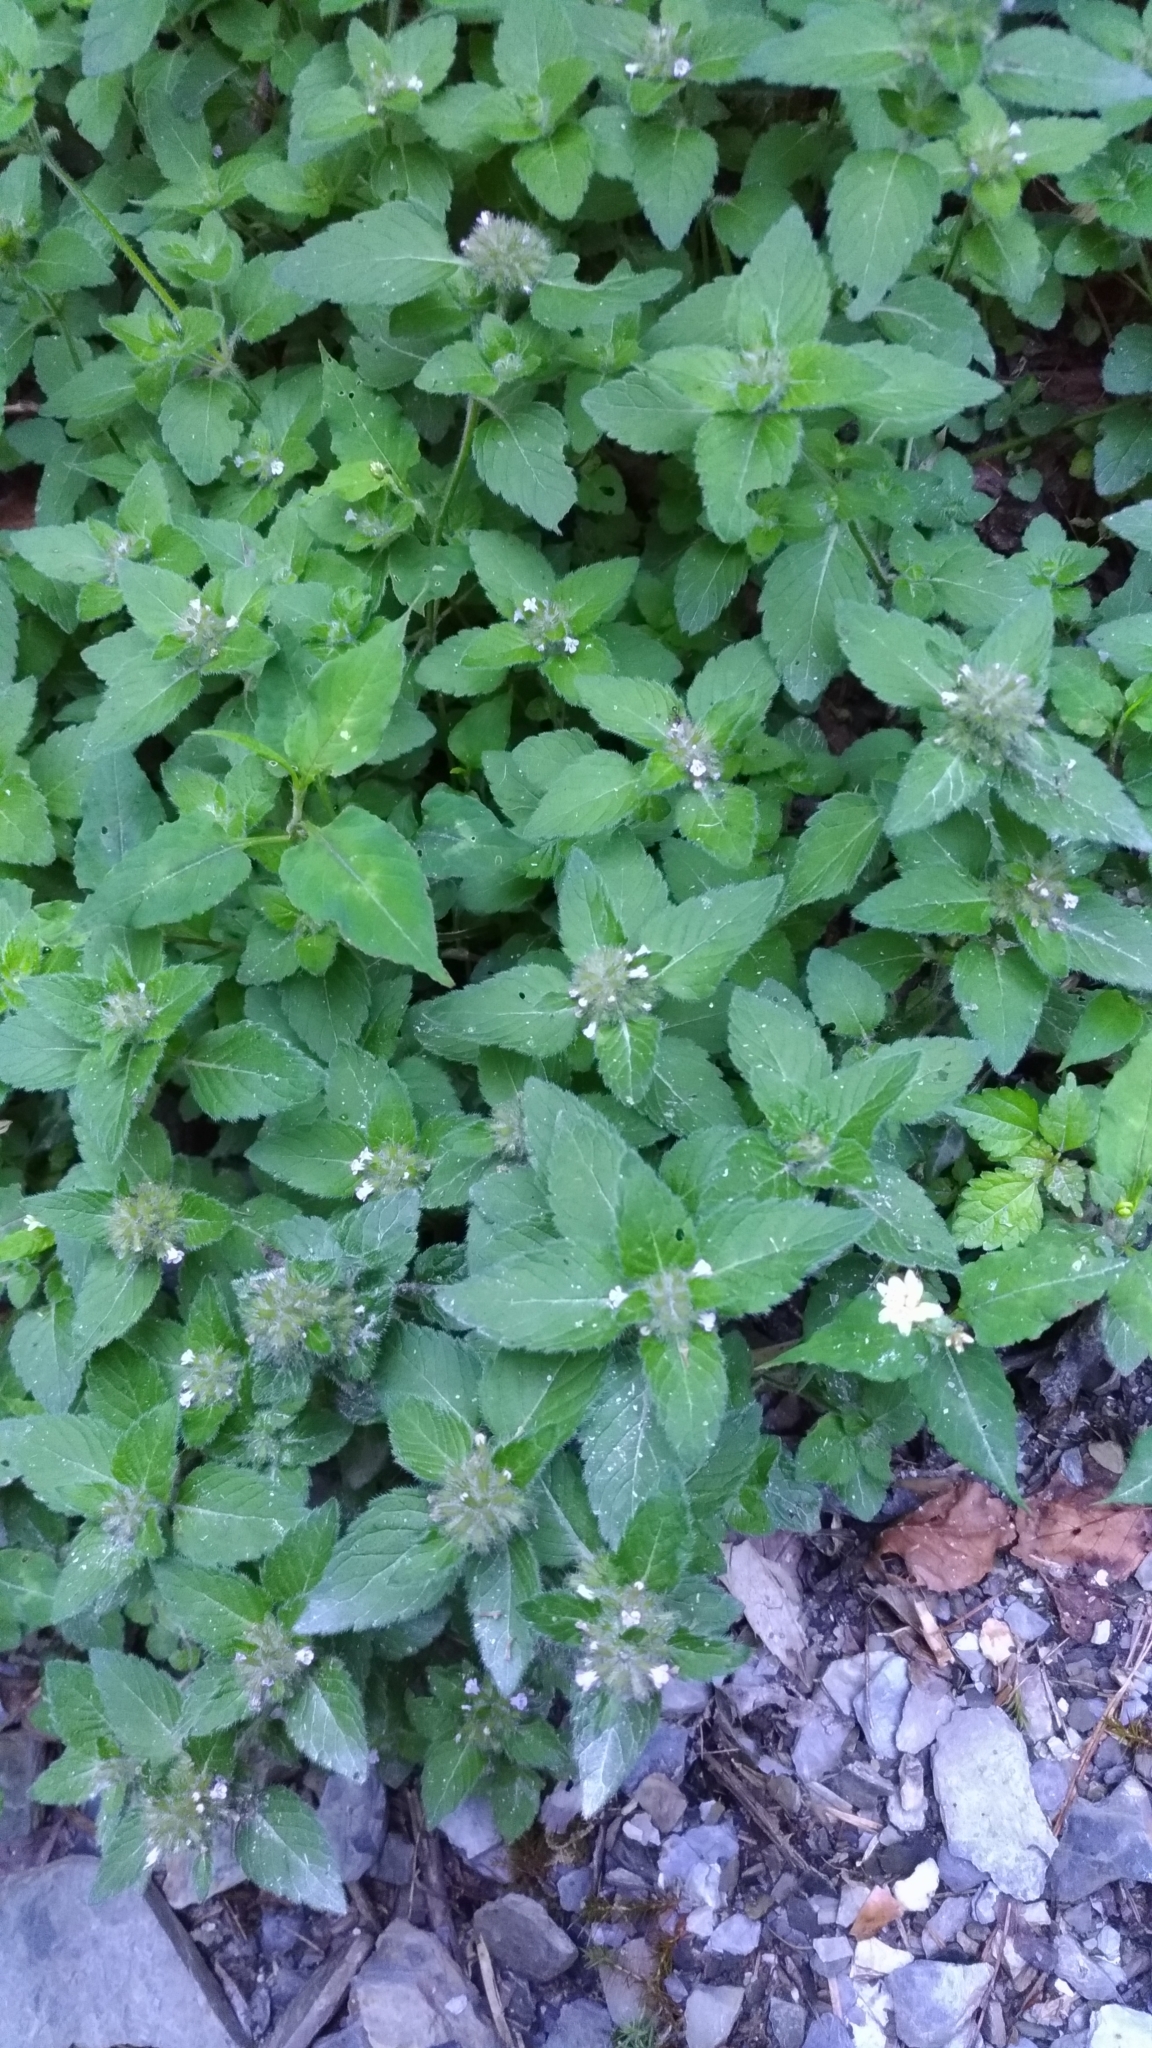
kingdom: Plantae
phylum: Tracheophyta
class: Magnoliopsida
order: Lamiales
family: Lamiaceae
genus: Clinopodium
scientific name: Clinopodium chinense
